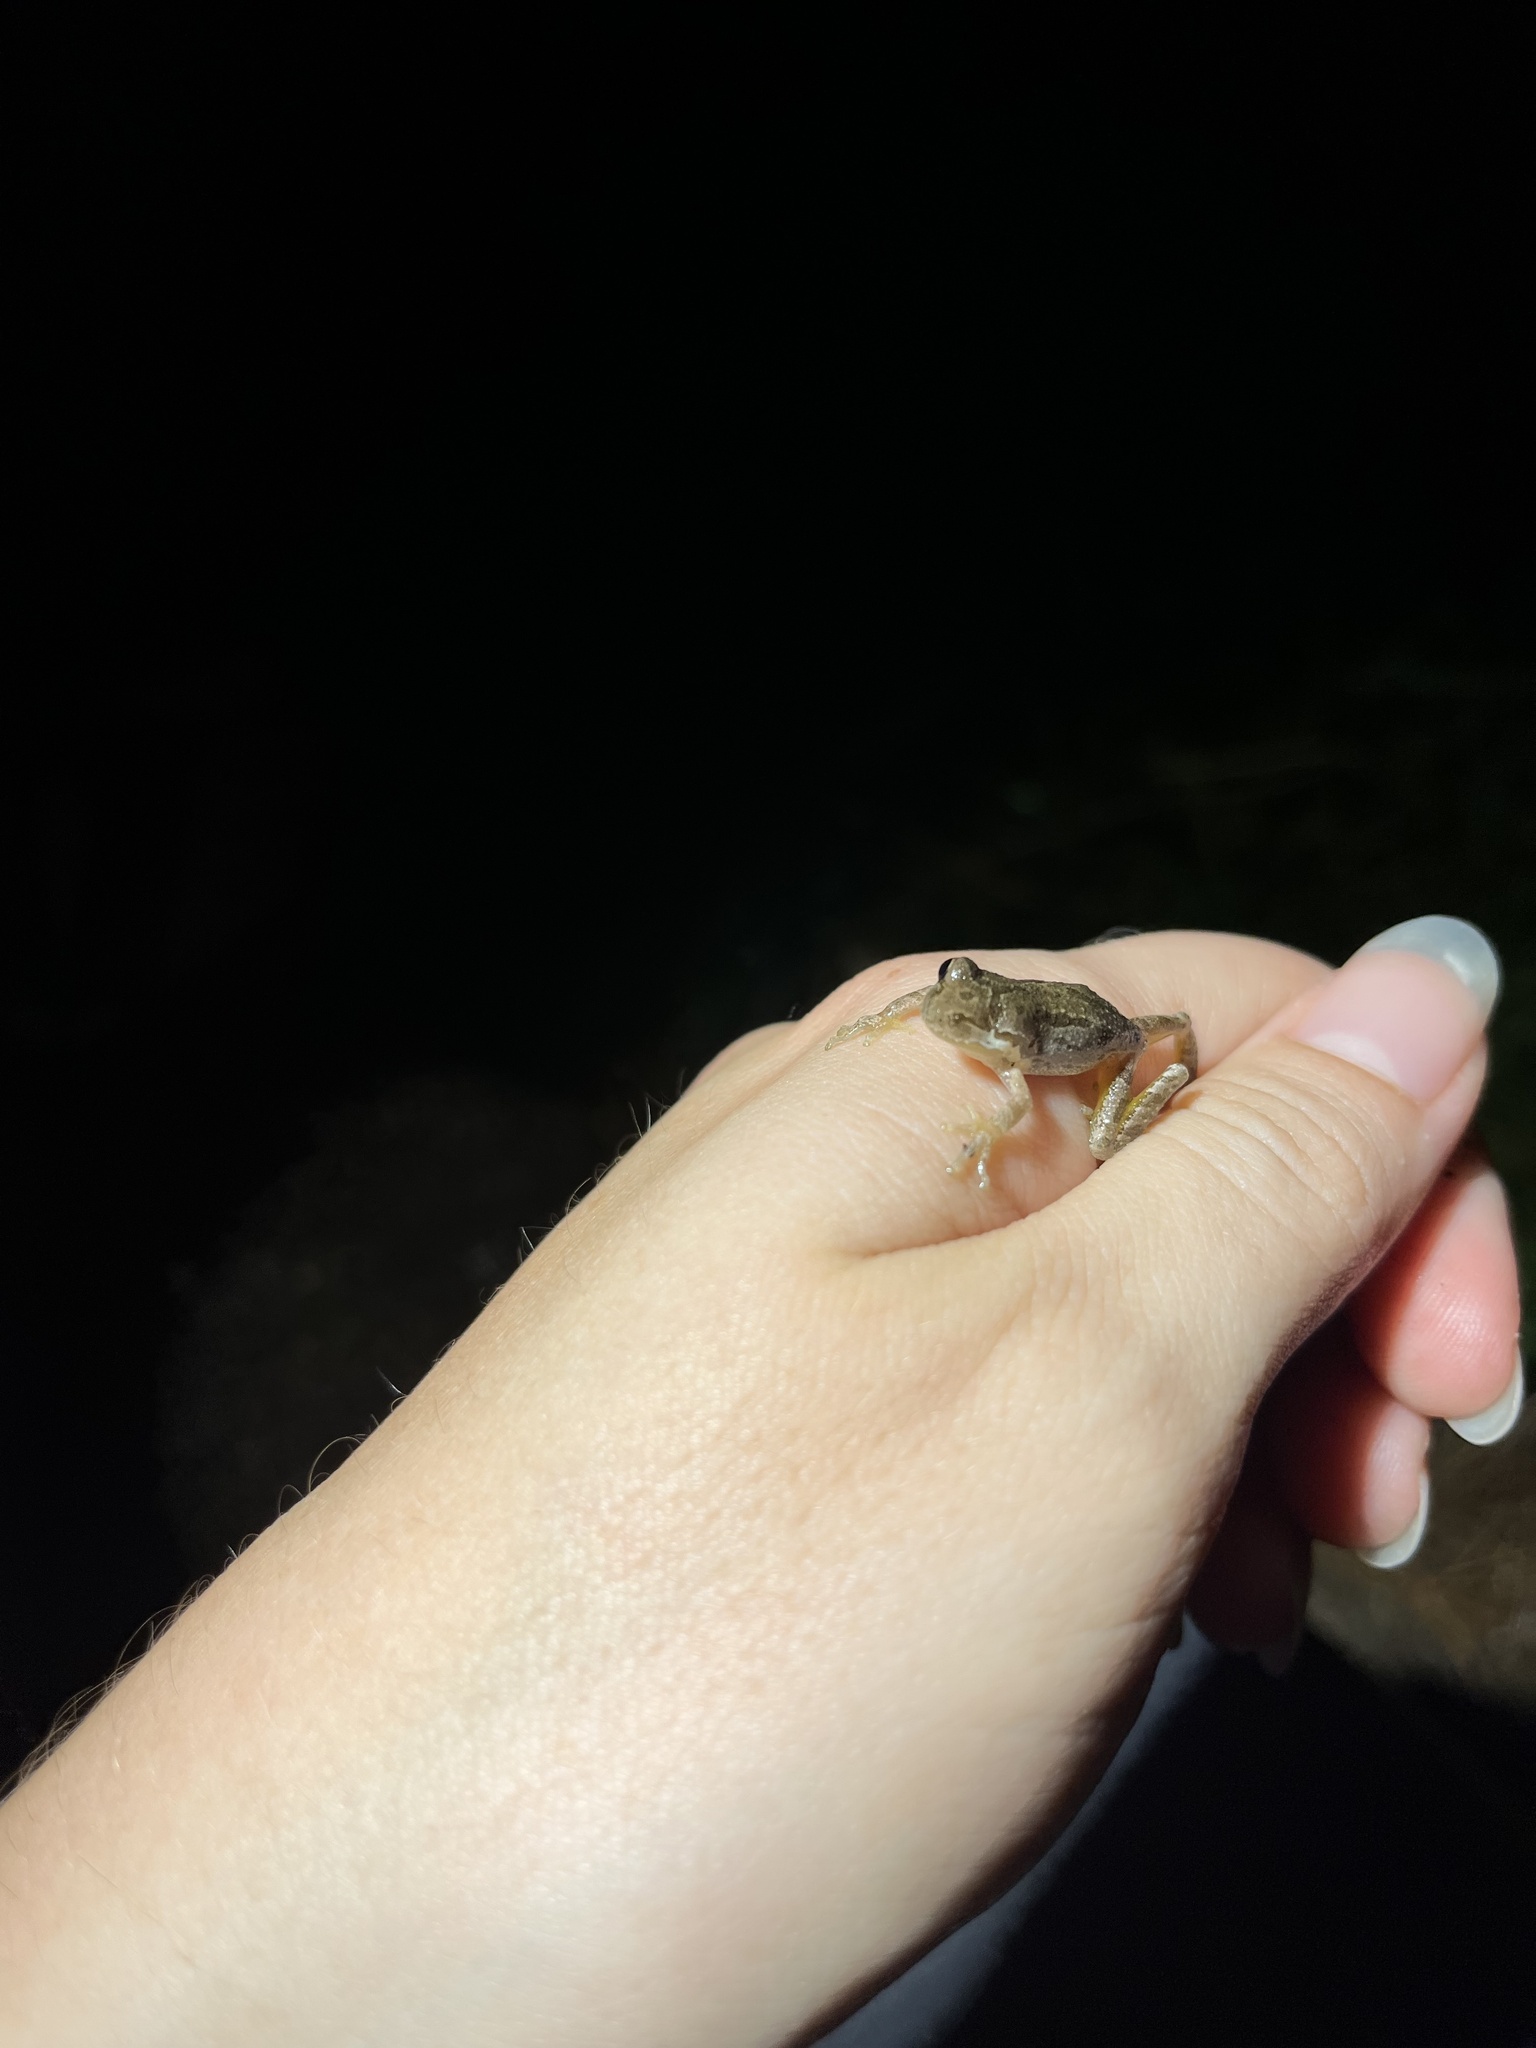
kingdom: Animalia
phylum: Chordata
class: Amphibia
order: Anura
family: Hylidae
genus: Pseudacris
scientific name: Pseudacris regilla
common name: Pacific chorus frog
